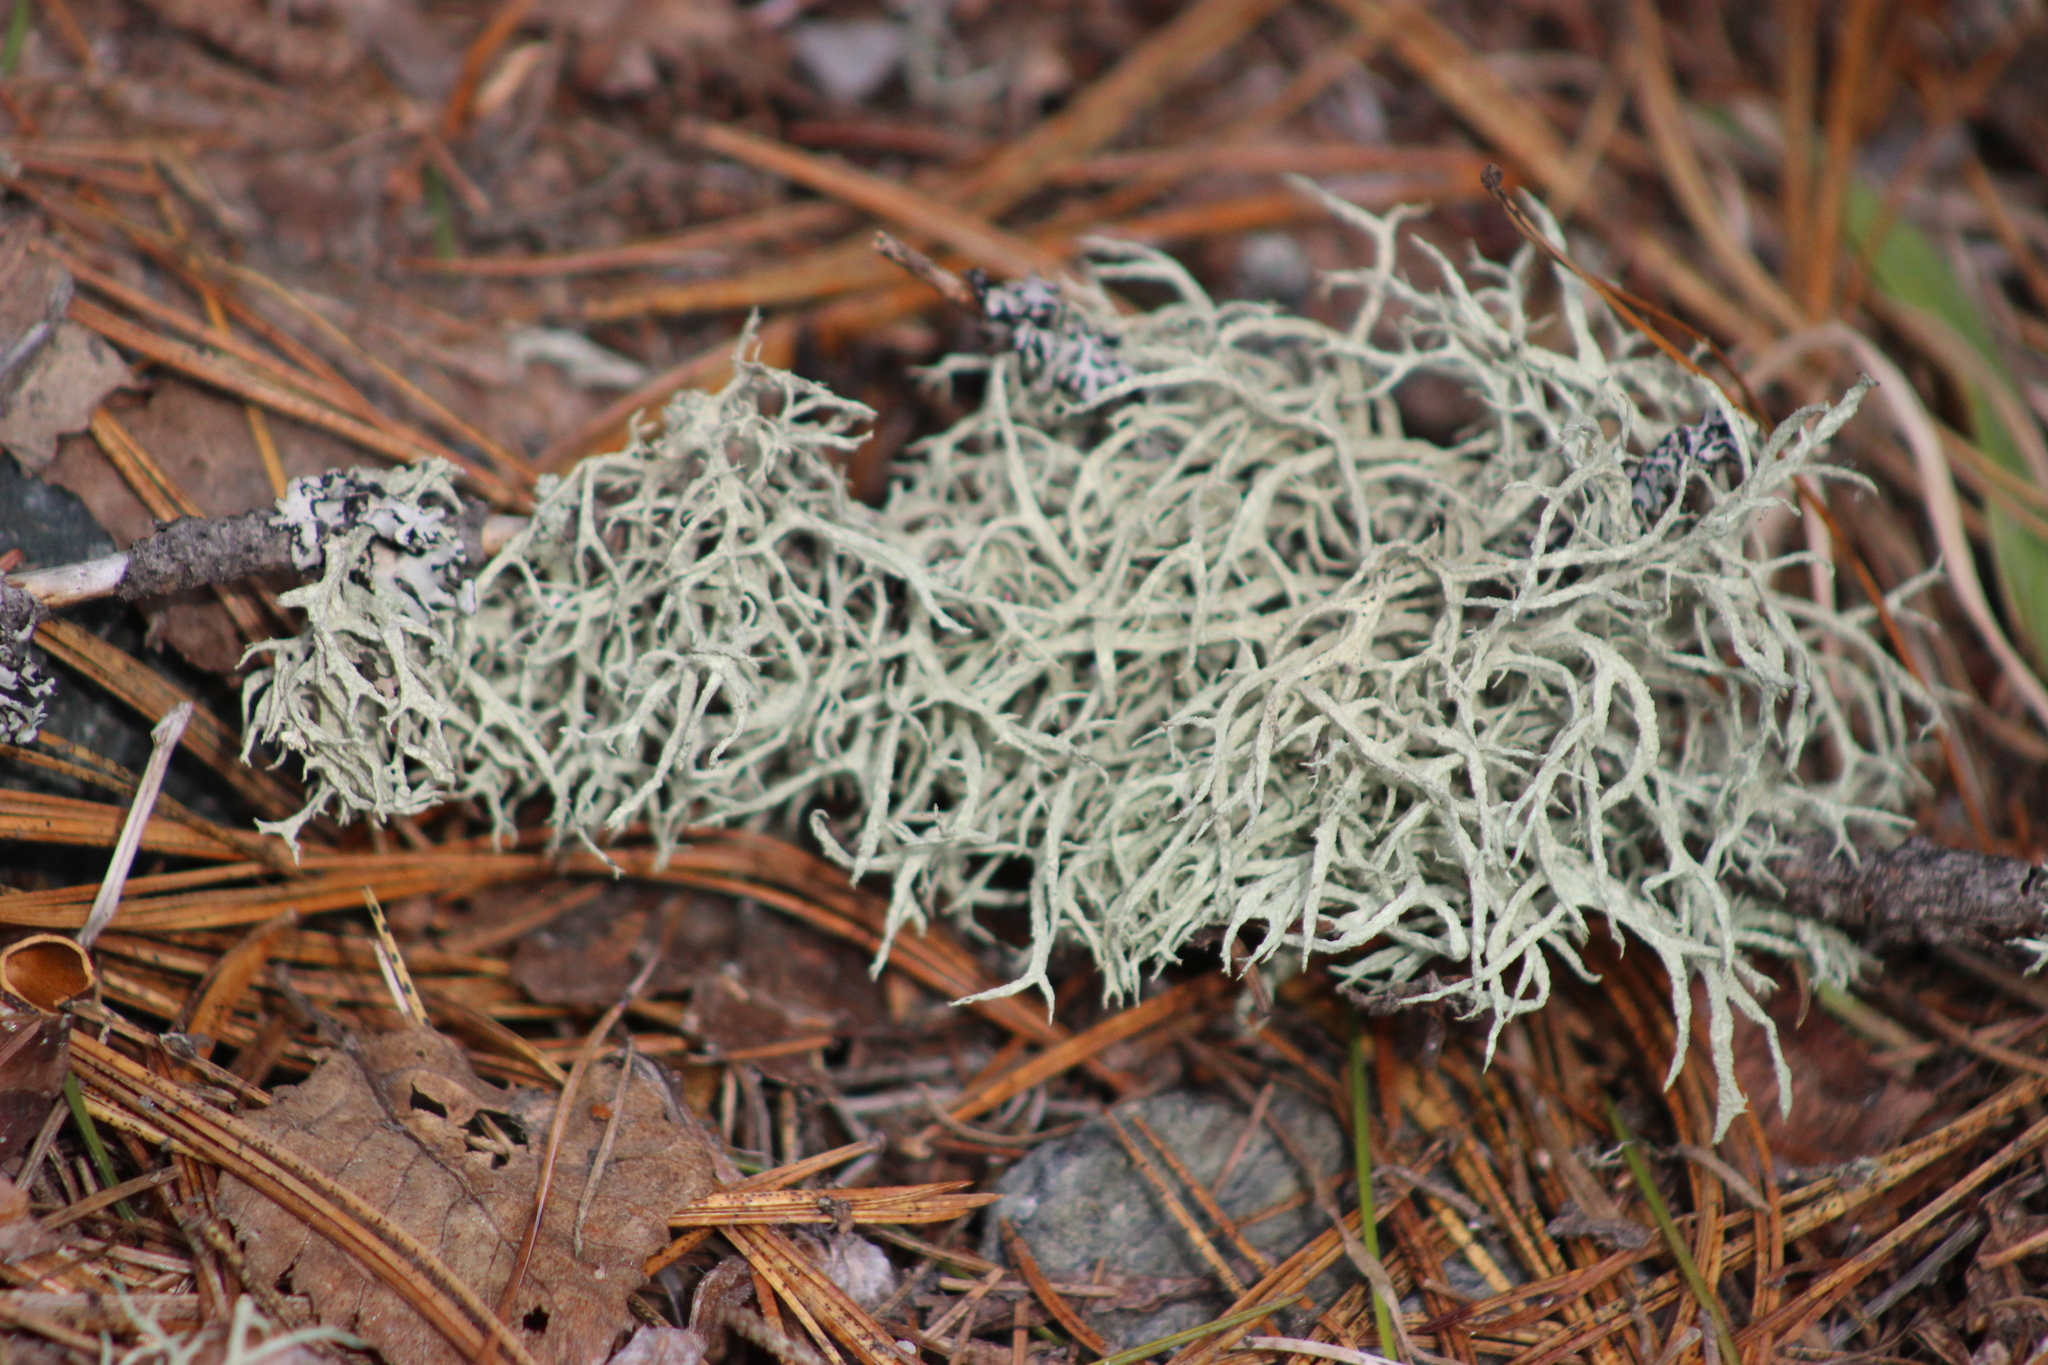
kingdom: Fungi
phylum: Ascomycota
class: Lecanoromycetes
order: Lecanorales
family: Parmeliaceae
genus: Evernia
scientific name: Evernia mesomorpha
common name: Boreal oak moss lichen
